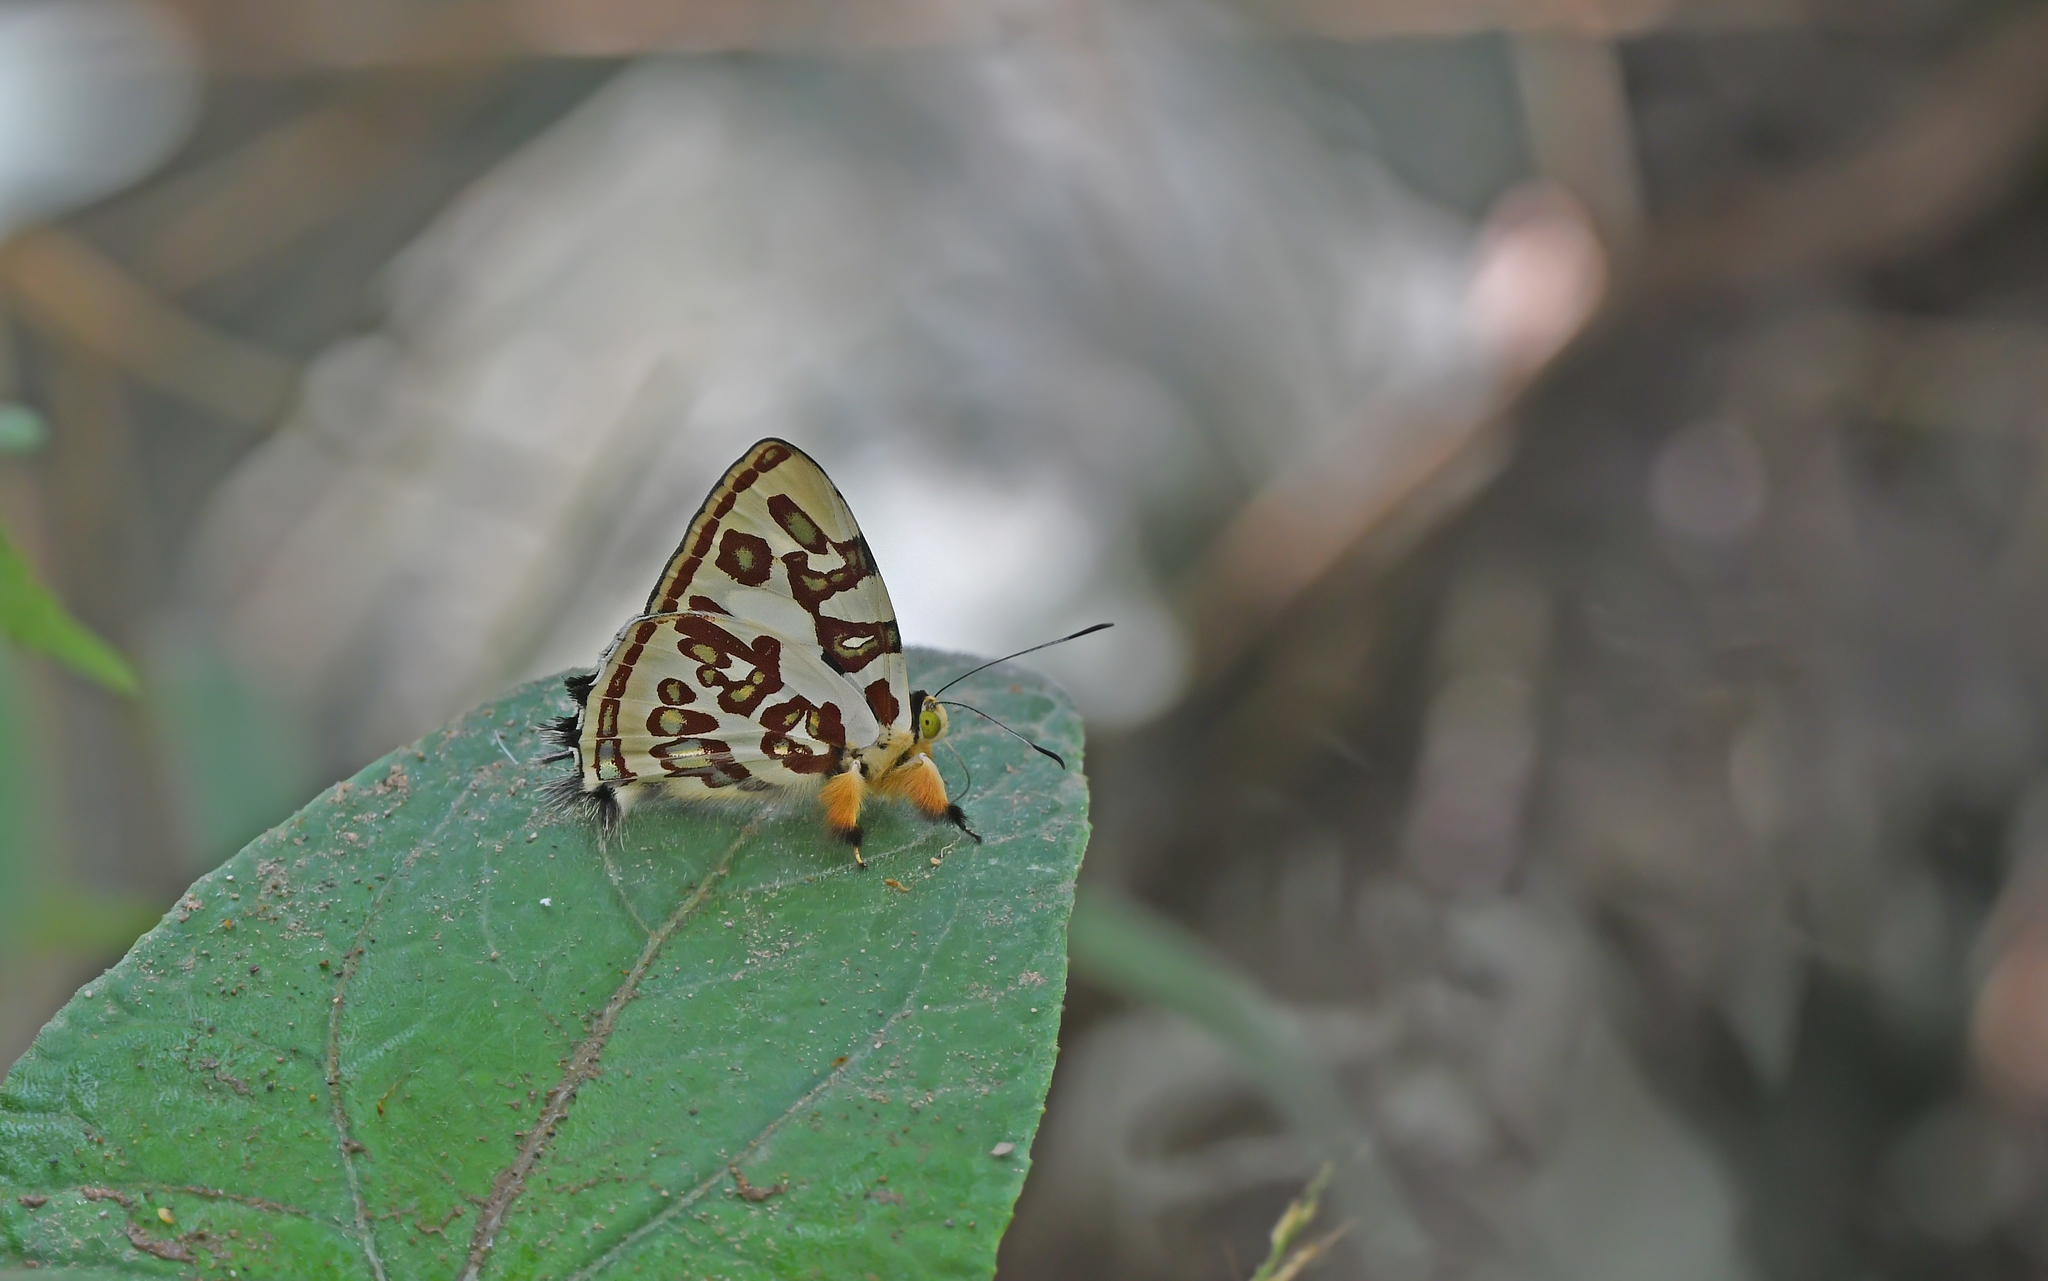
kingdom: Animalia
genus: Anteros
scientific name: Anteros kupris
